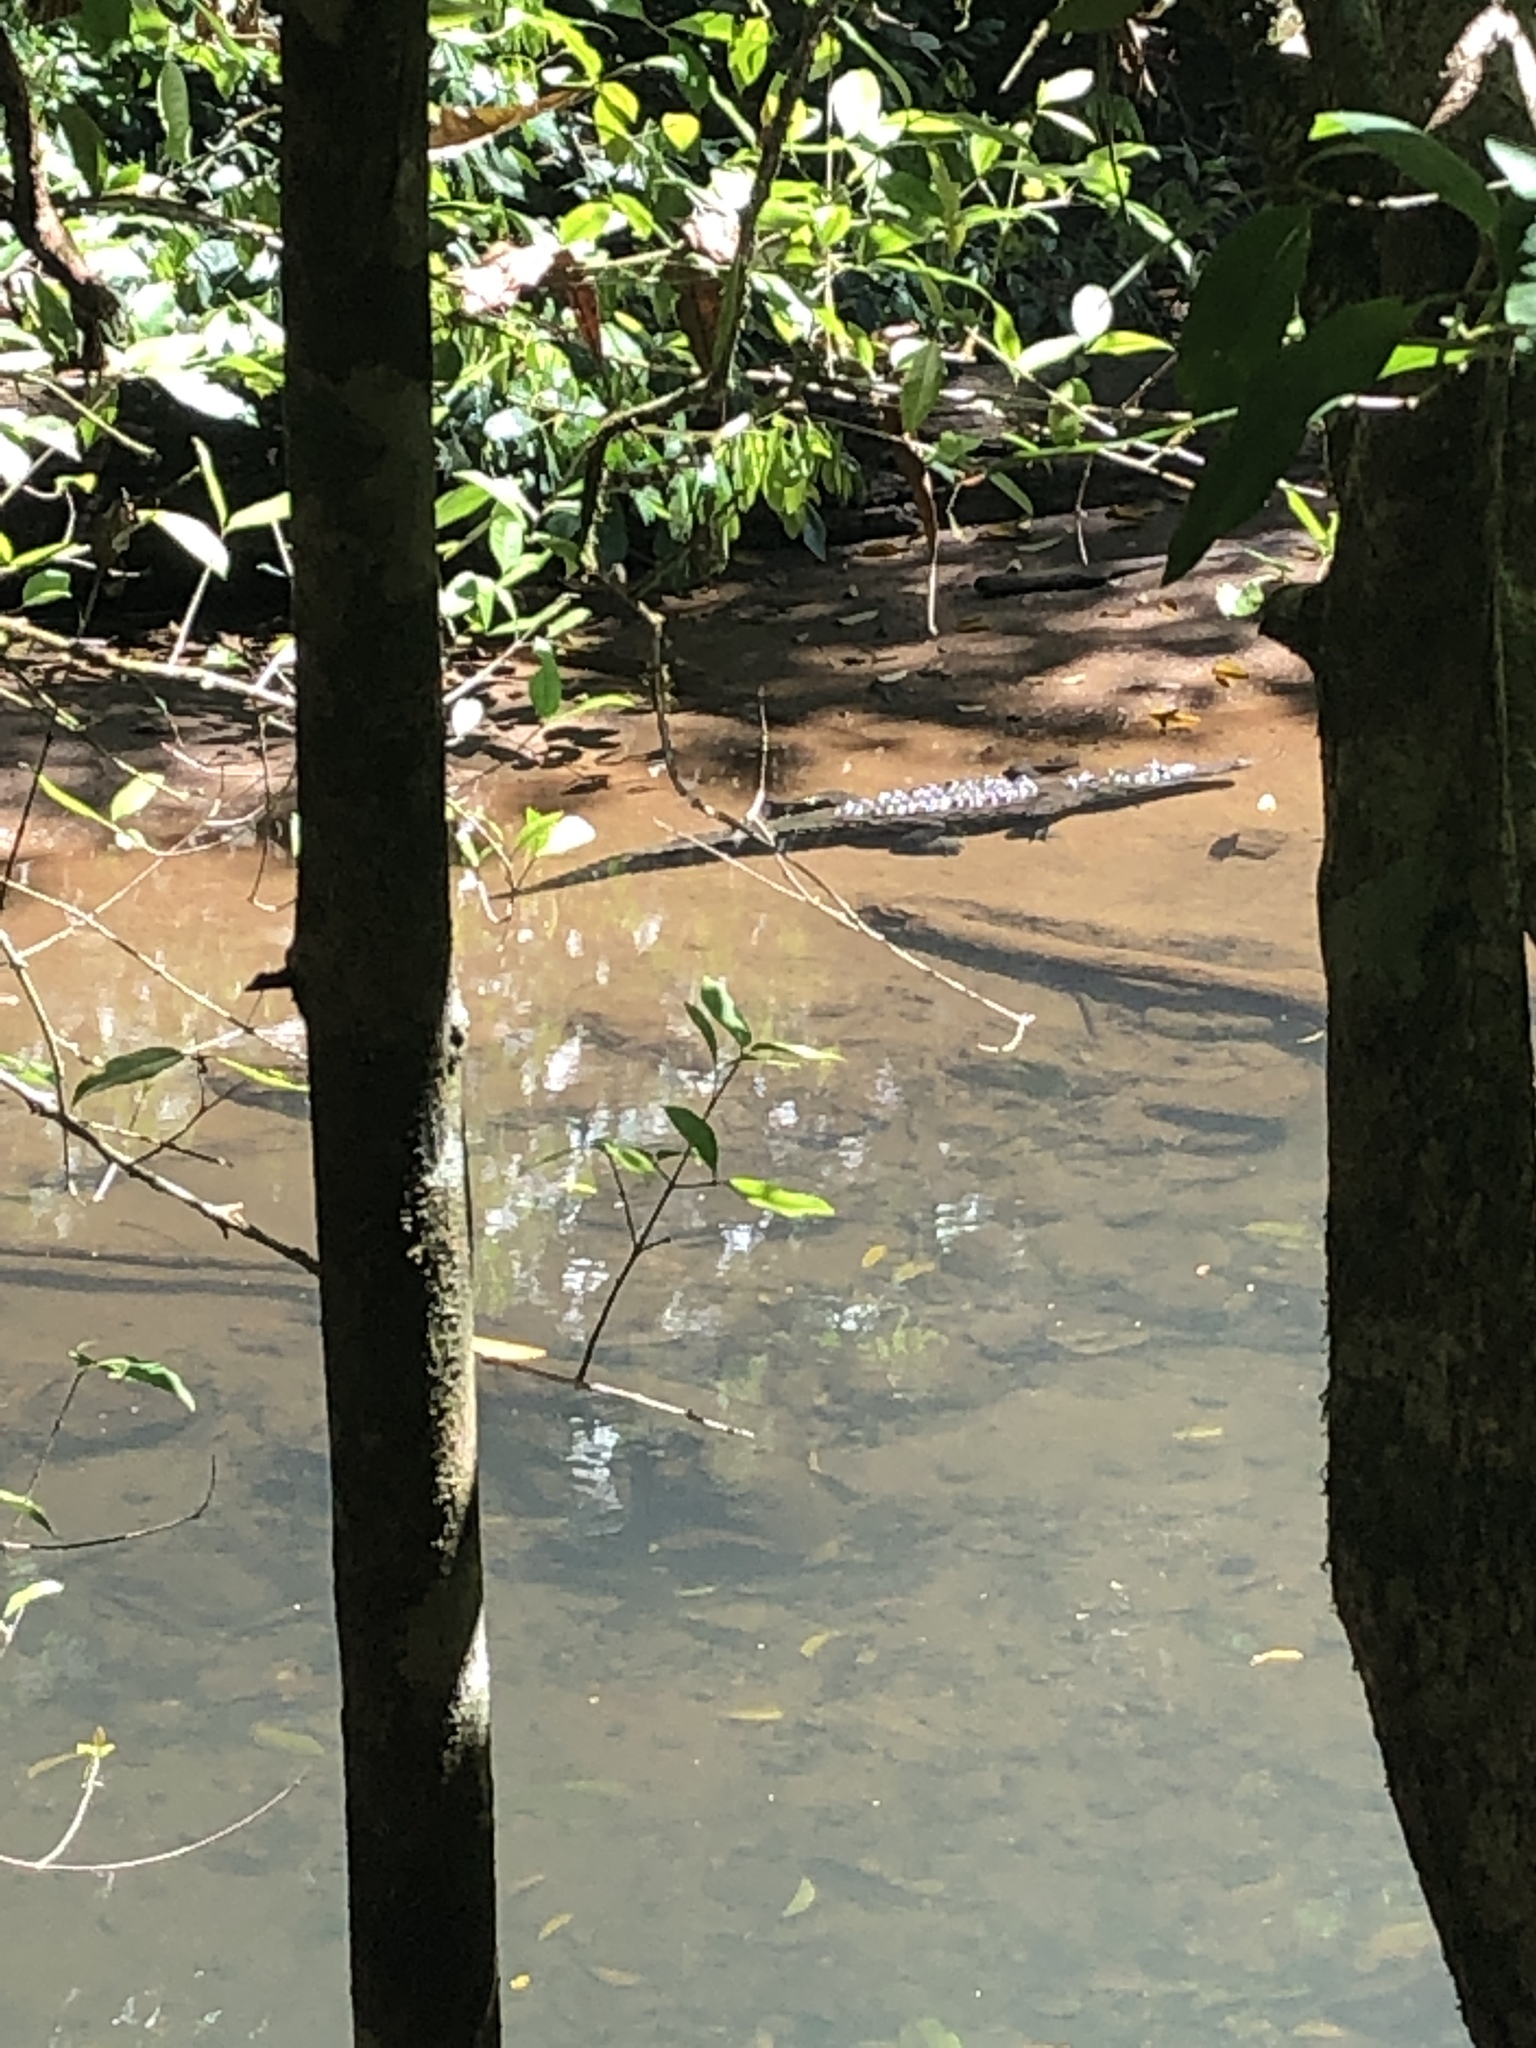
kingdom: Animalia
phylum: Chordata
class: Crocodylia
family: Crocodylidae
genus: Crocodylus
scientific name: Crocodylus acutus
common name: American crocodile
